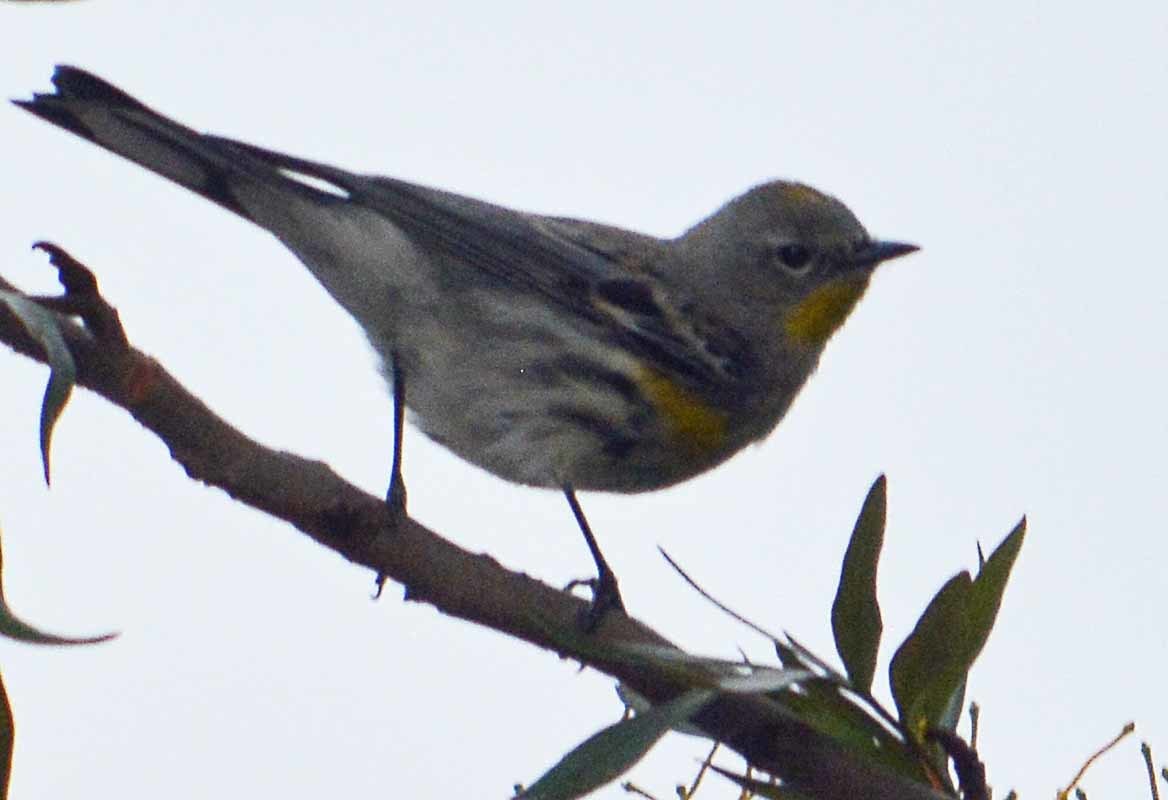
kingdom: Animalia
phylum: Chordata
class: Aves
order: Passeriformes
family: Parulidae
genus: Setophaga
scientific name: Setophaga coronata
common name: Myrtle warbler
